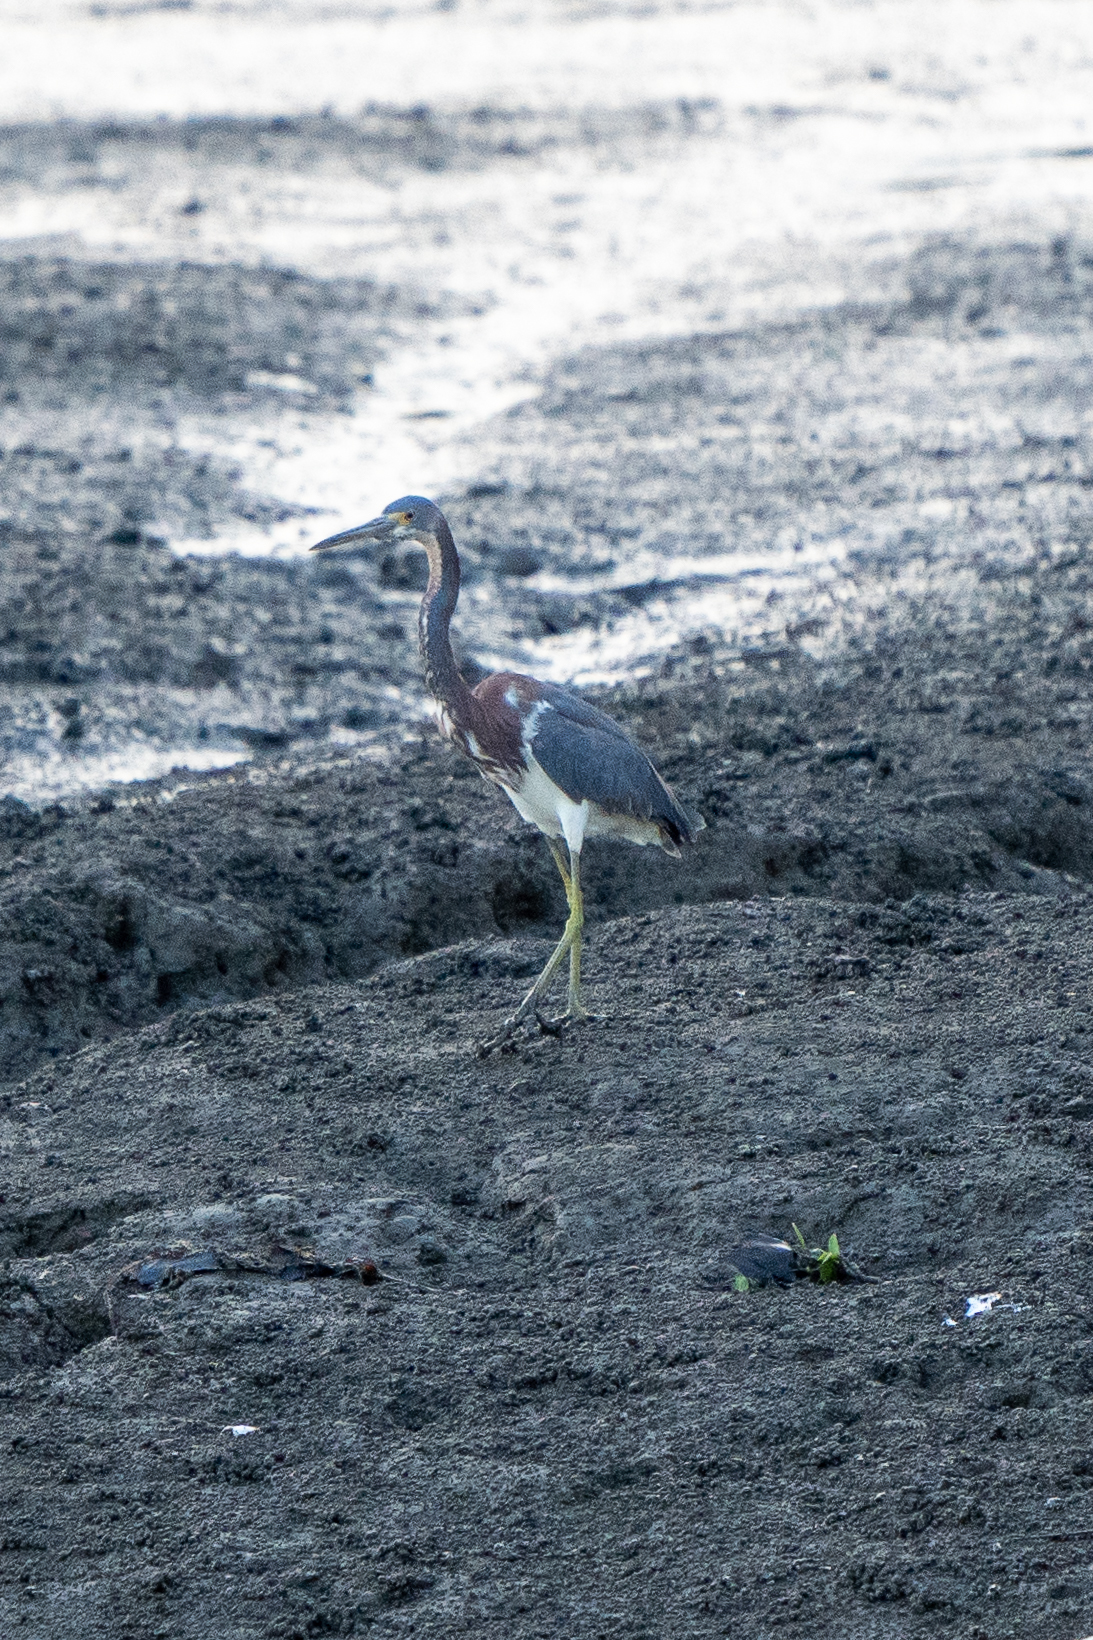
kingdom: Animalia
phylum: Chordata
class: Aves
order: Pelecaniformes
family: Ardeidae
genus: Egretta
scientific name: Egretta tricolor
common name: Tricolored heron
